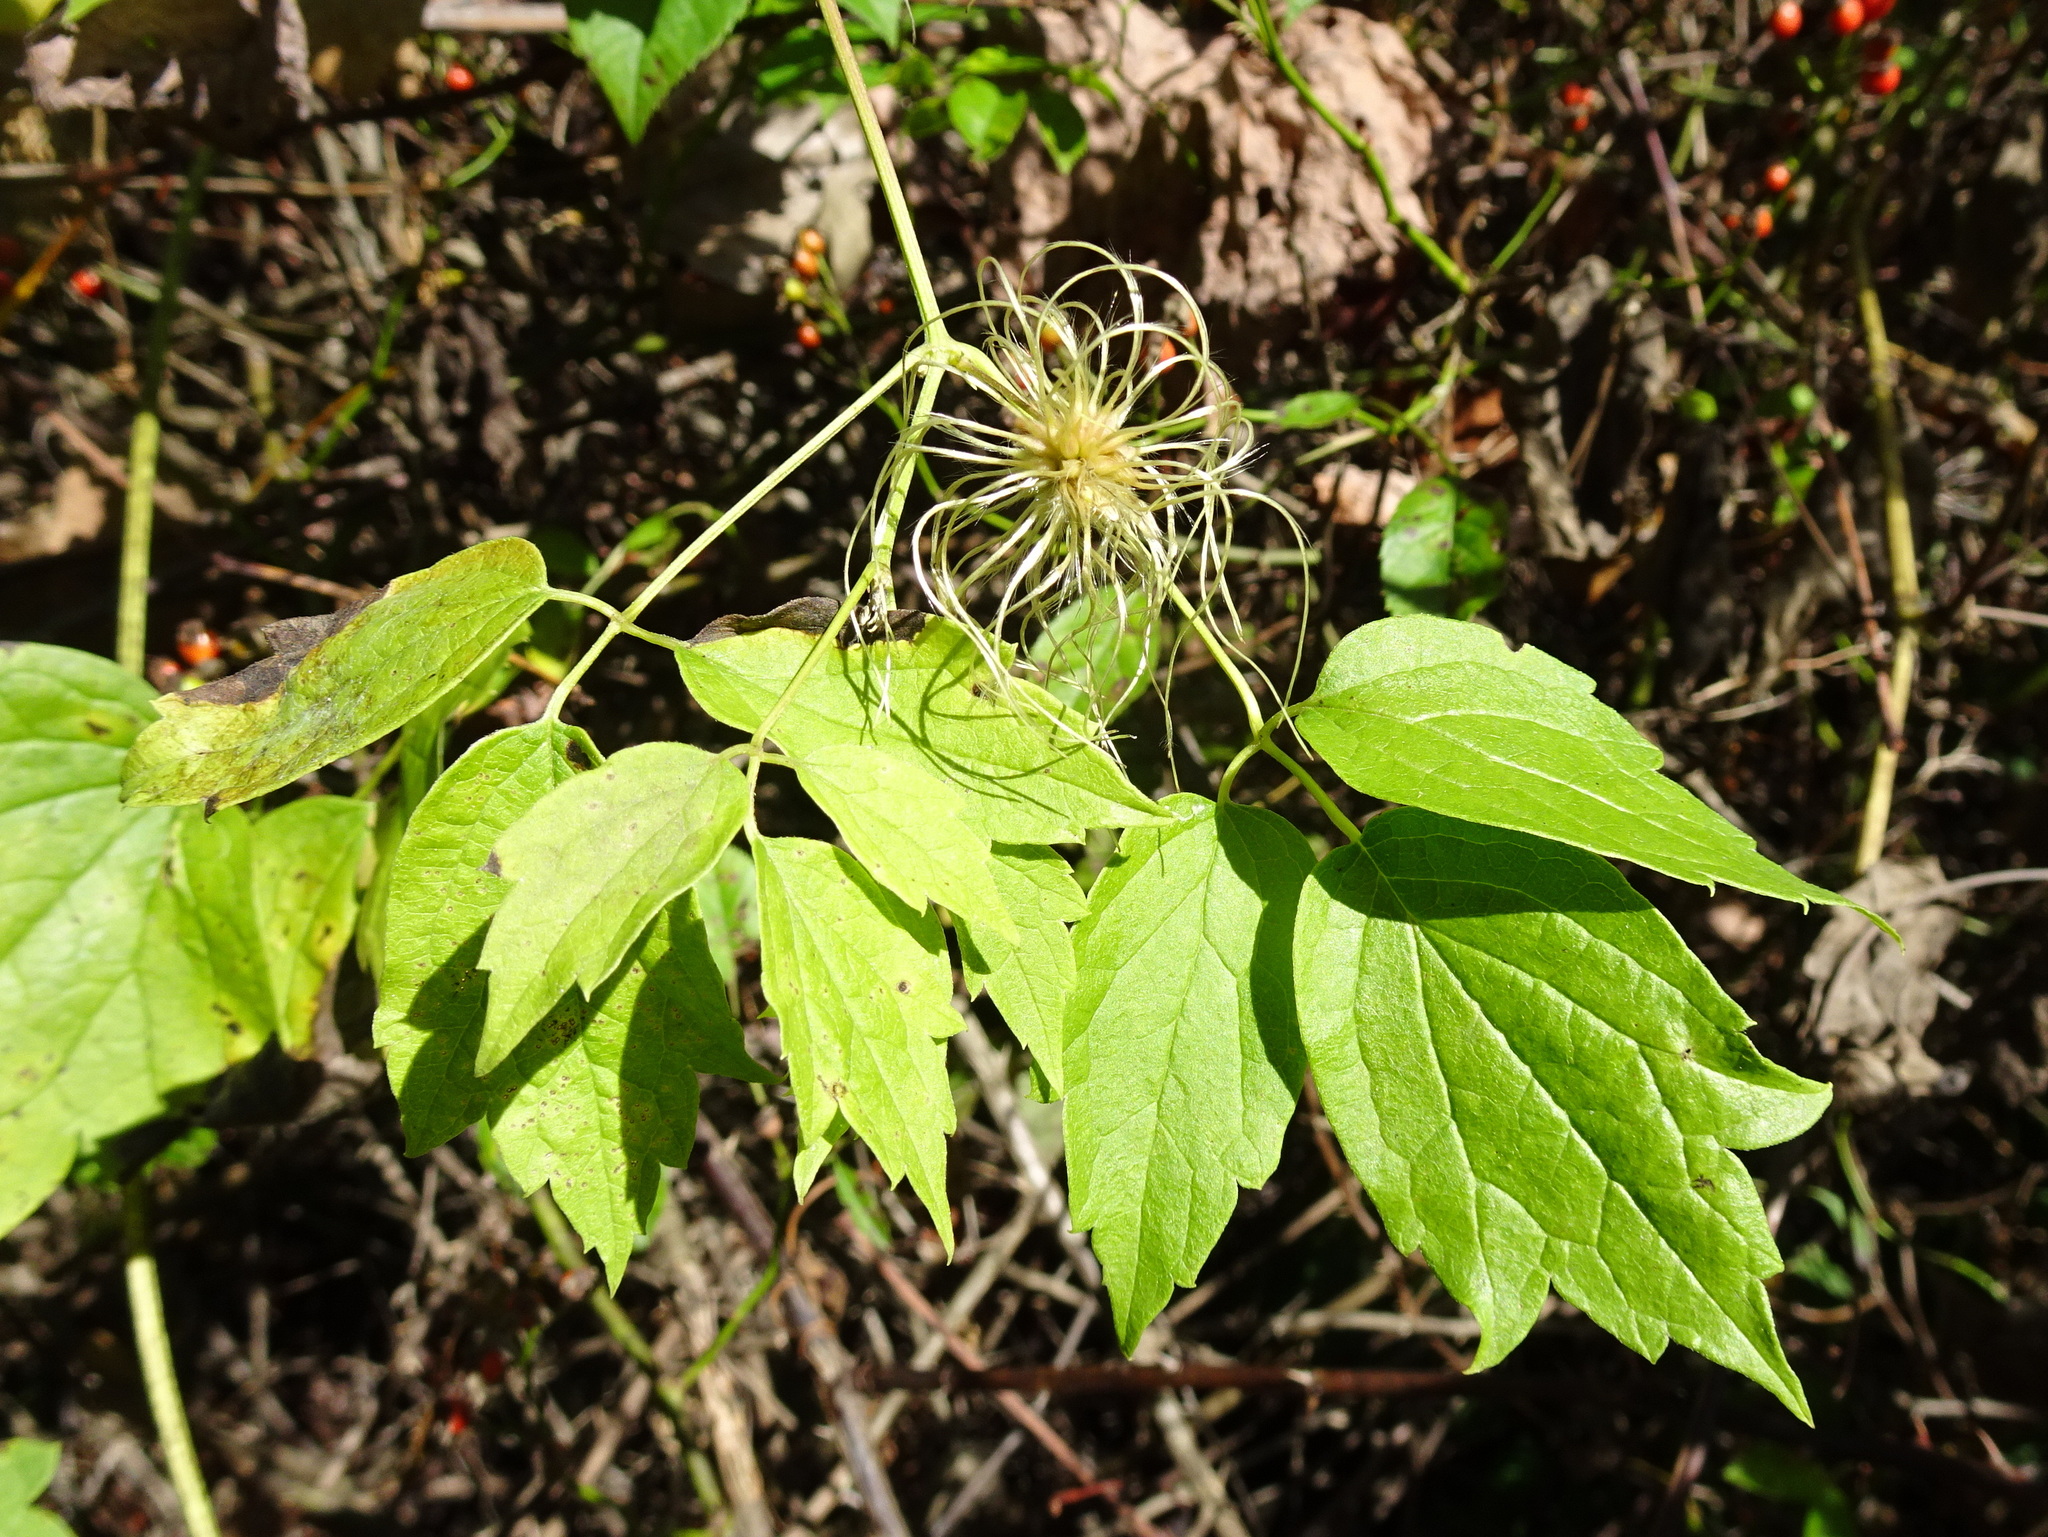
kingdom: Plantae
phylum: Tracheophyta
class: Magnoliopsida
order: Ranunculales
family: Ranunculaceae
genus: Clematis
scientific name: Clematis virginiana
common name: Virgin's-bower
